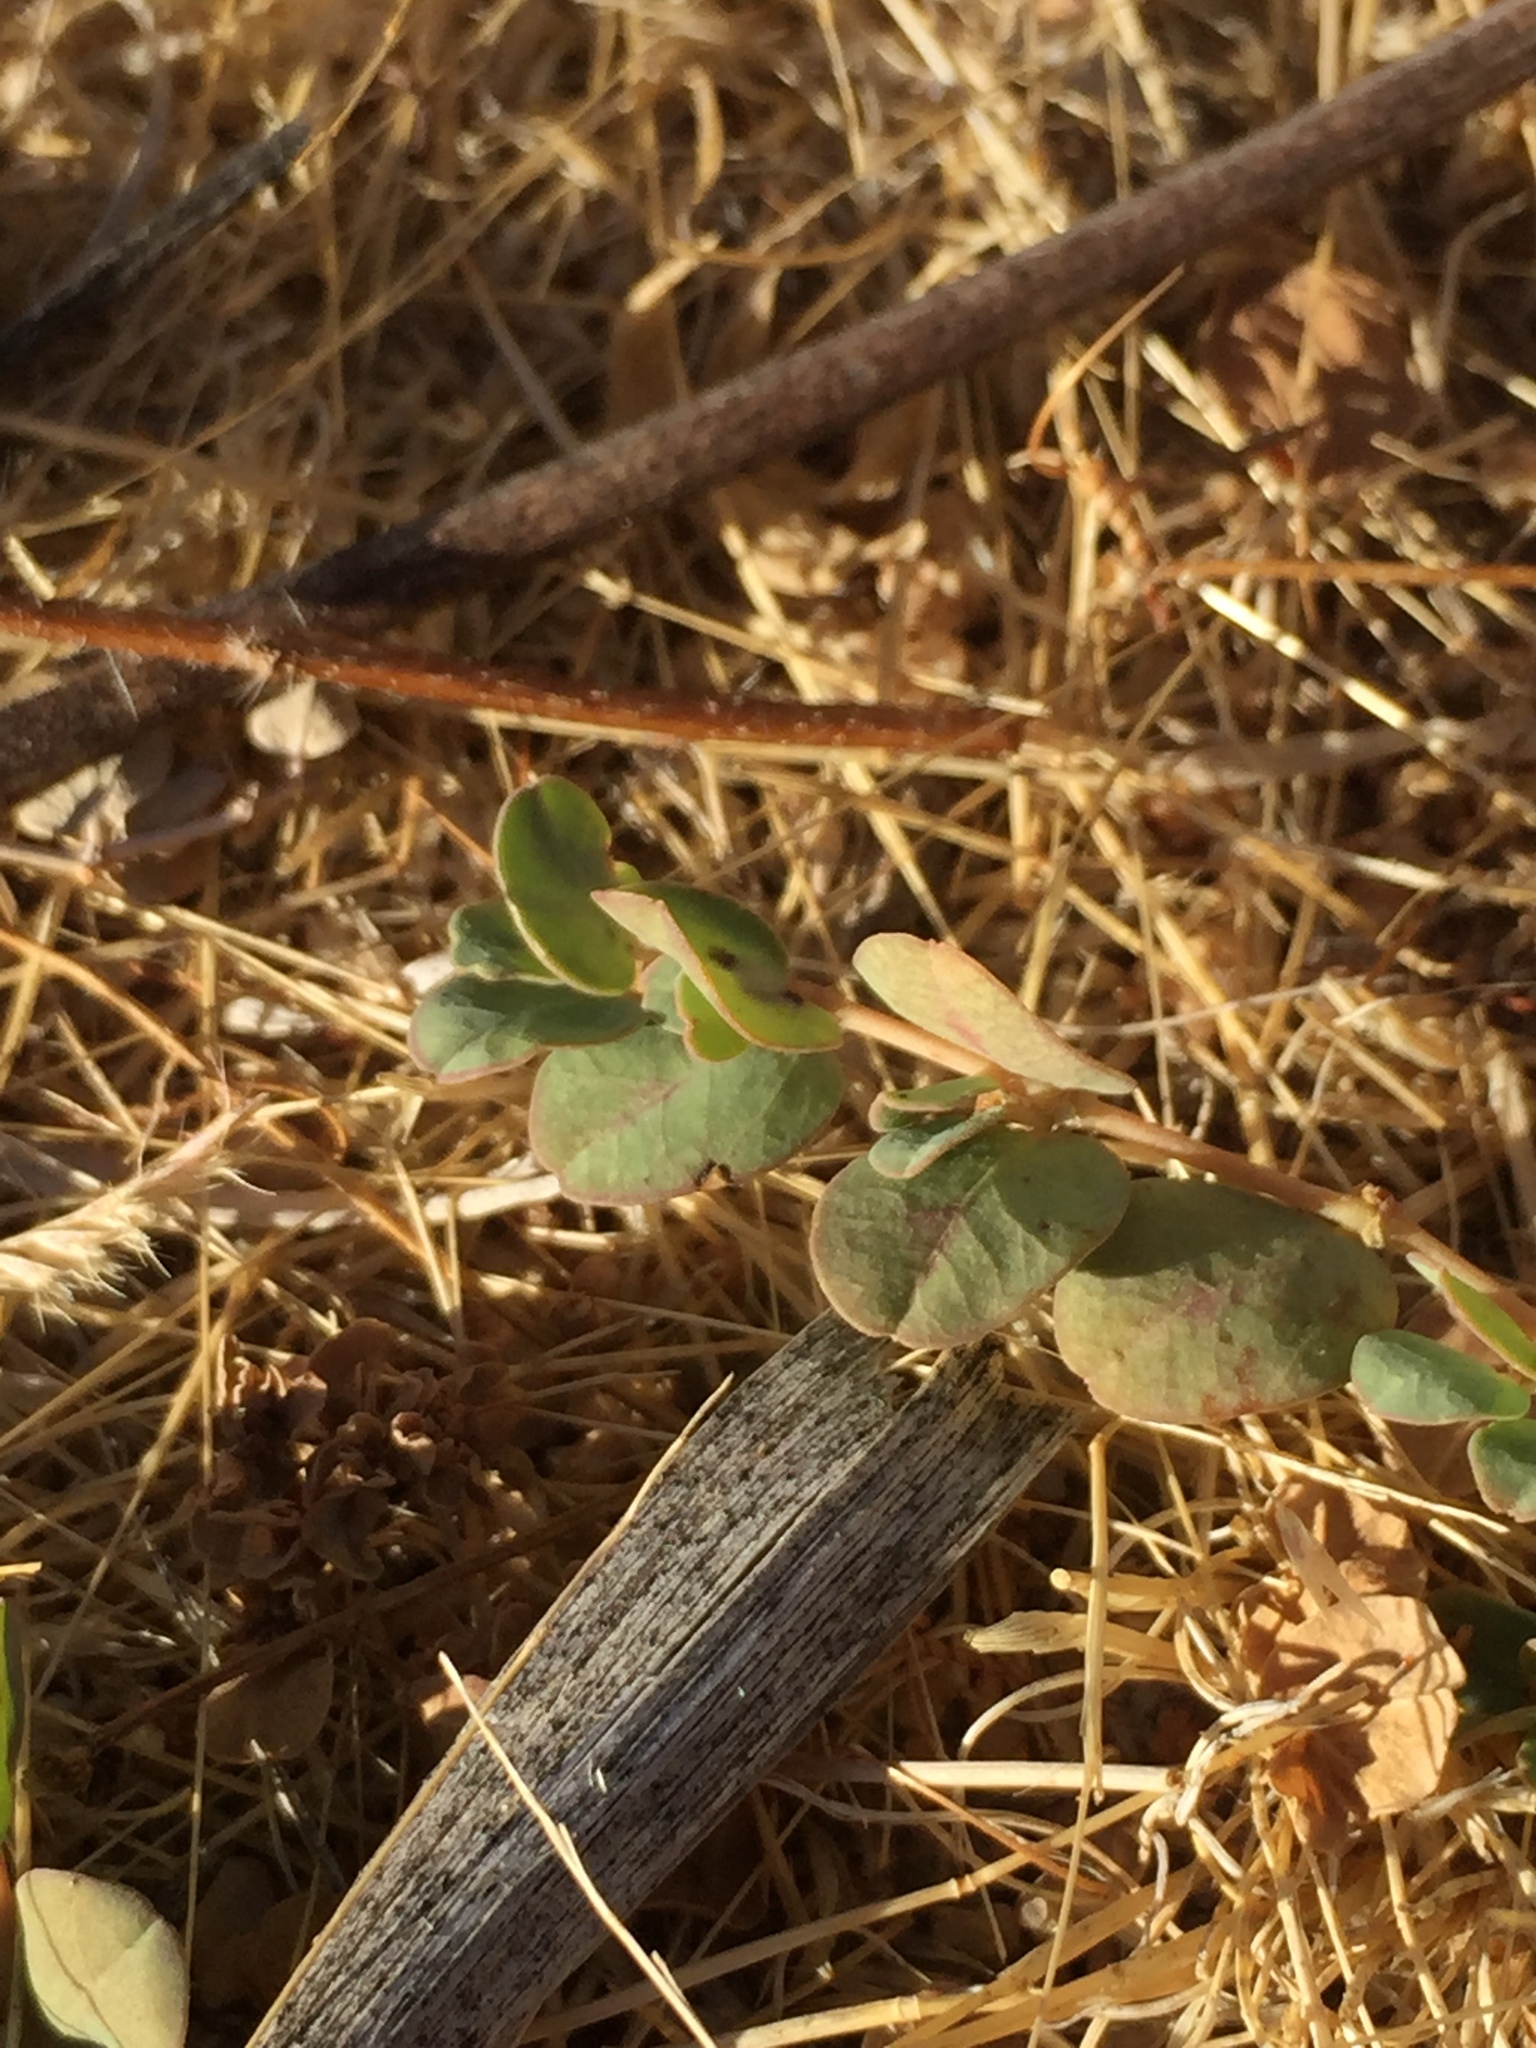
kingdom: Plantae
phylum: Tracheophyta
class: Magnoliopsida
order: Malpighiales
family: Euphorbiaceae
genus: Euphorbia
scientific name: Euphorbia albomarginata
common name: Whitemargin sandmat
